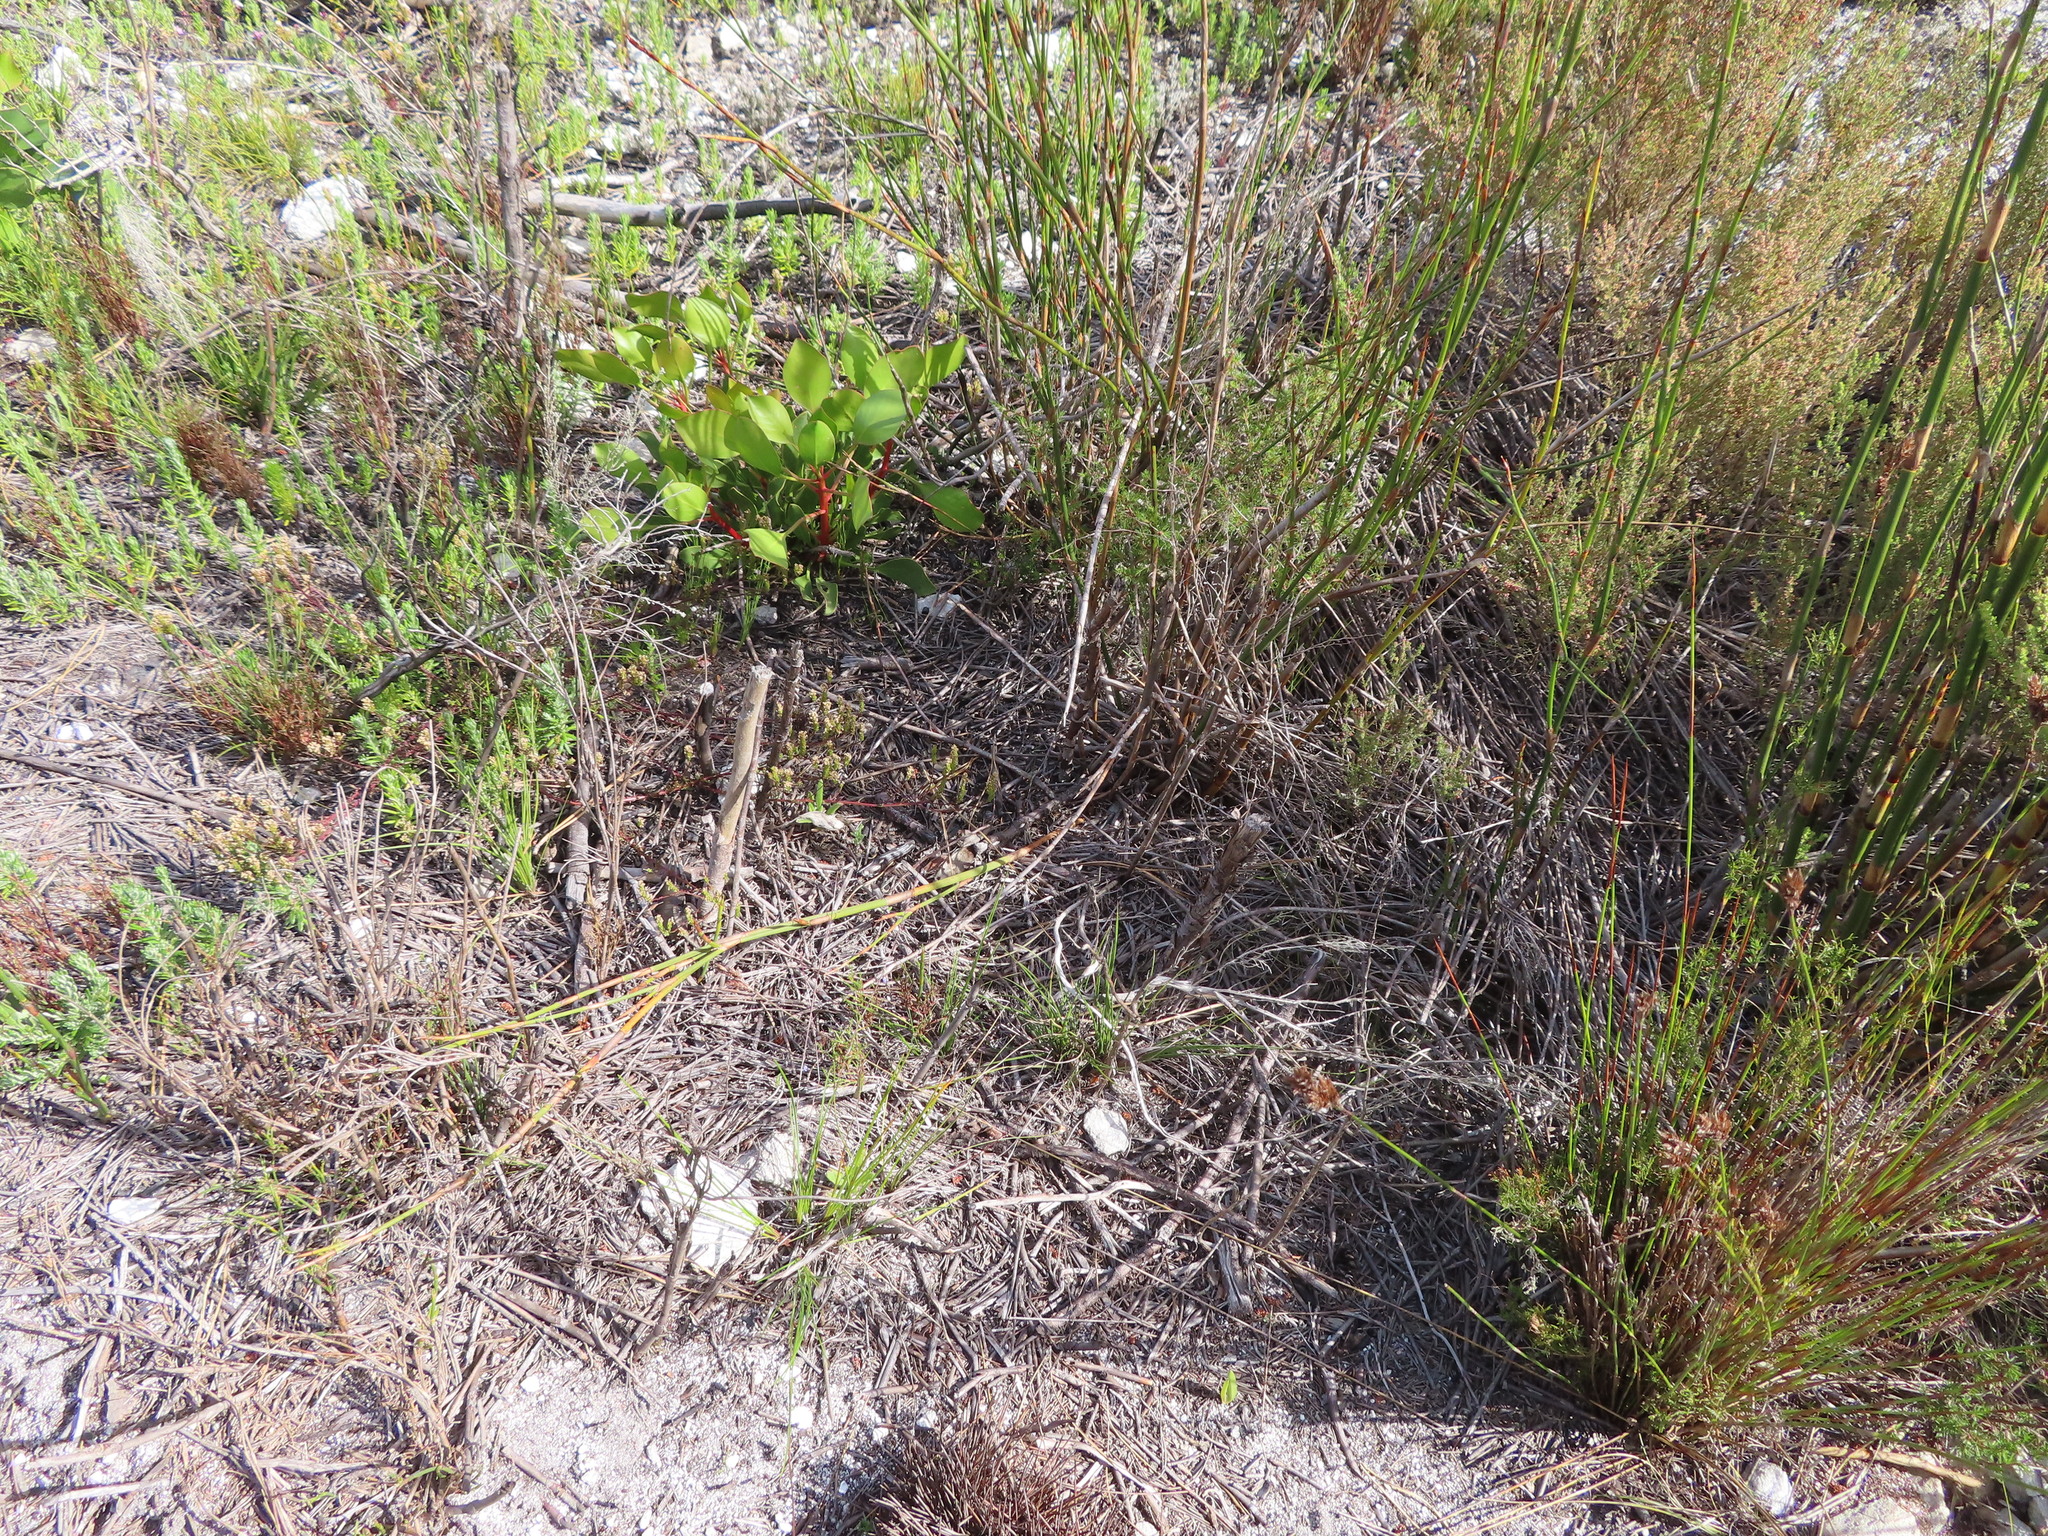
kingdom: Plantae
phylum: Tracheophyta
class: Magnoliopsida
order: Proteales
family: Proteaceae
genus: Protea
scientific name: Protea cynaroides
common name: King protea
